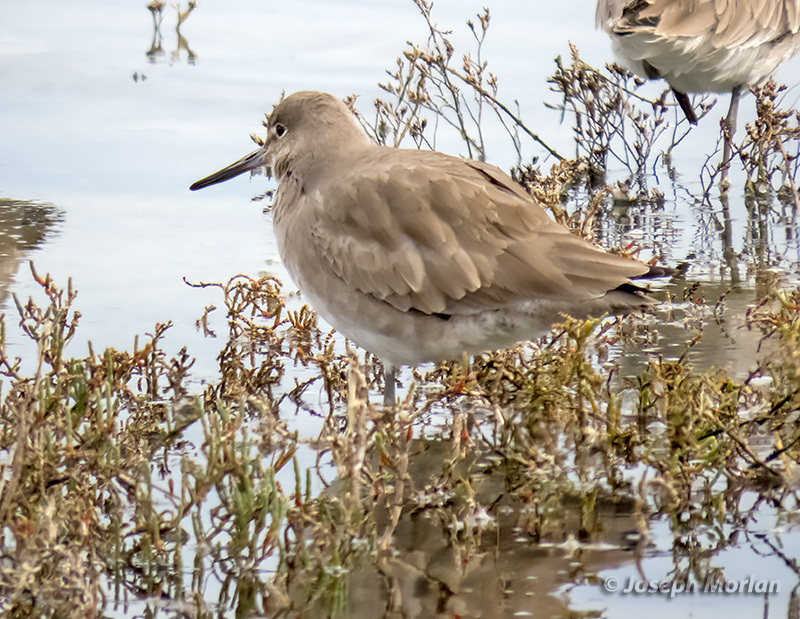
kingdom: Animalia
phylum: Chordata
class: Aves
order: Charadriiformes
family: Scolopacidae
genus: Tringa
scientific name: Tringa semipalmata
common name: Willet
